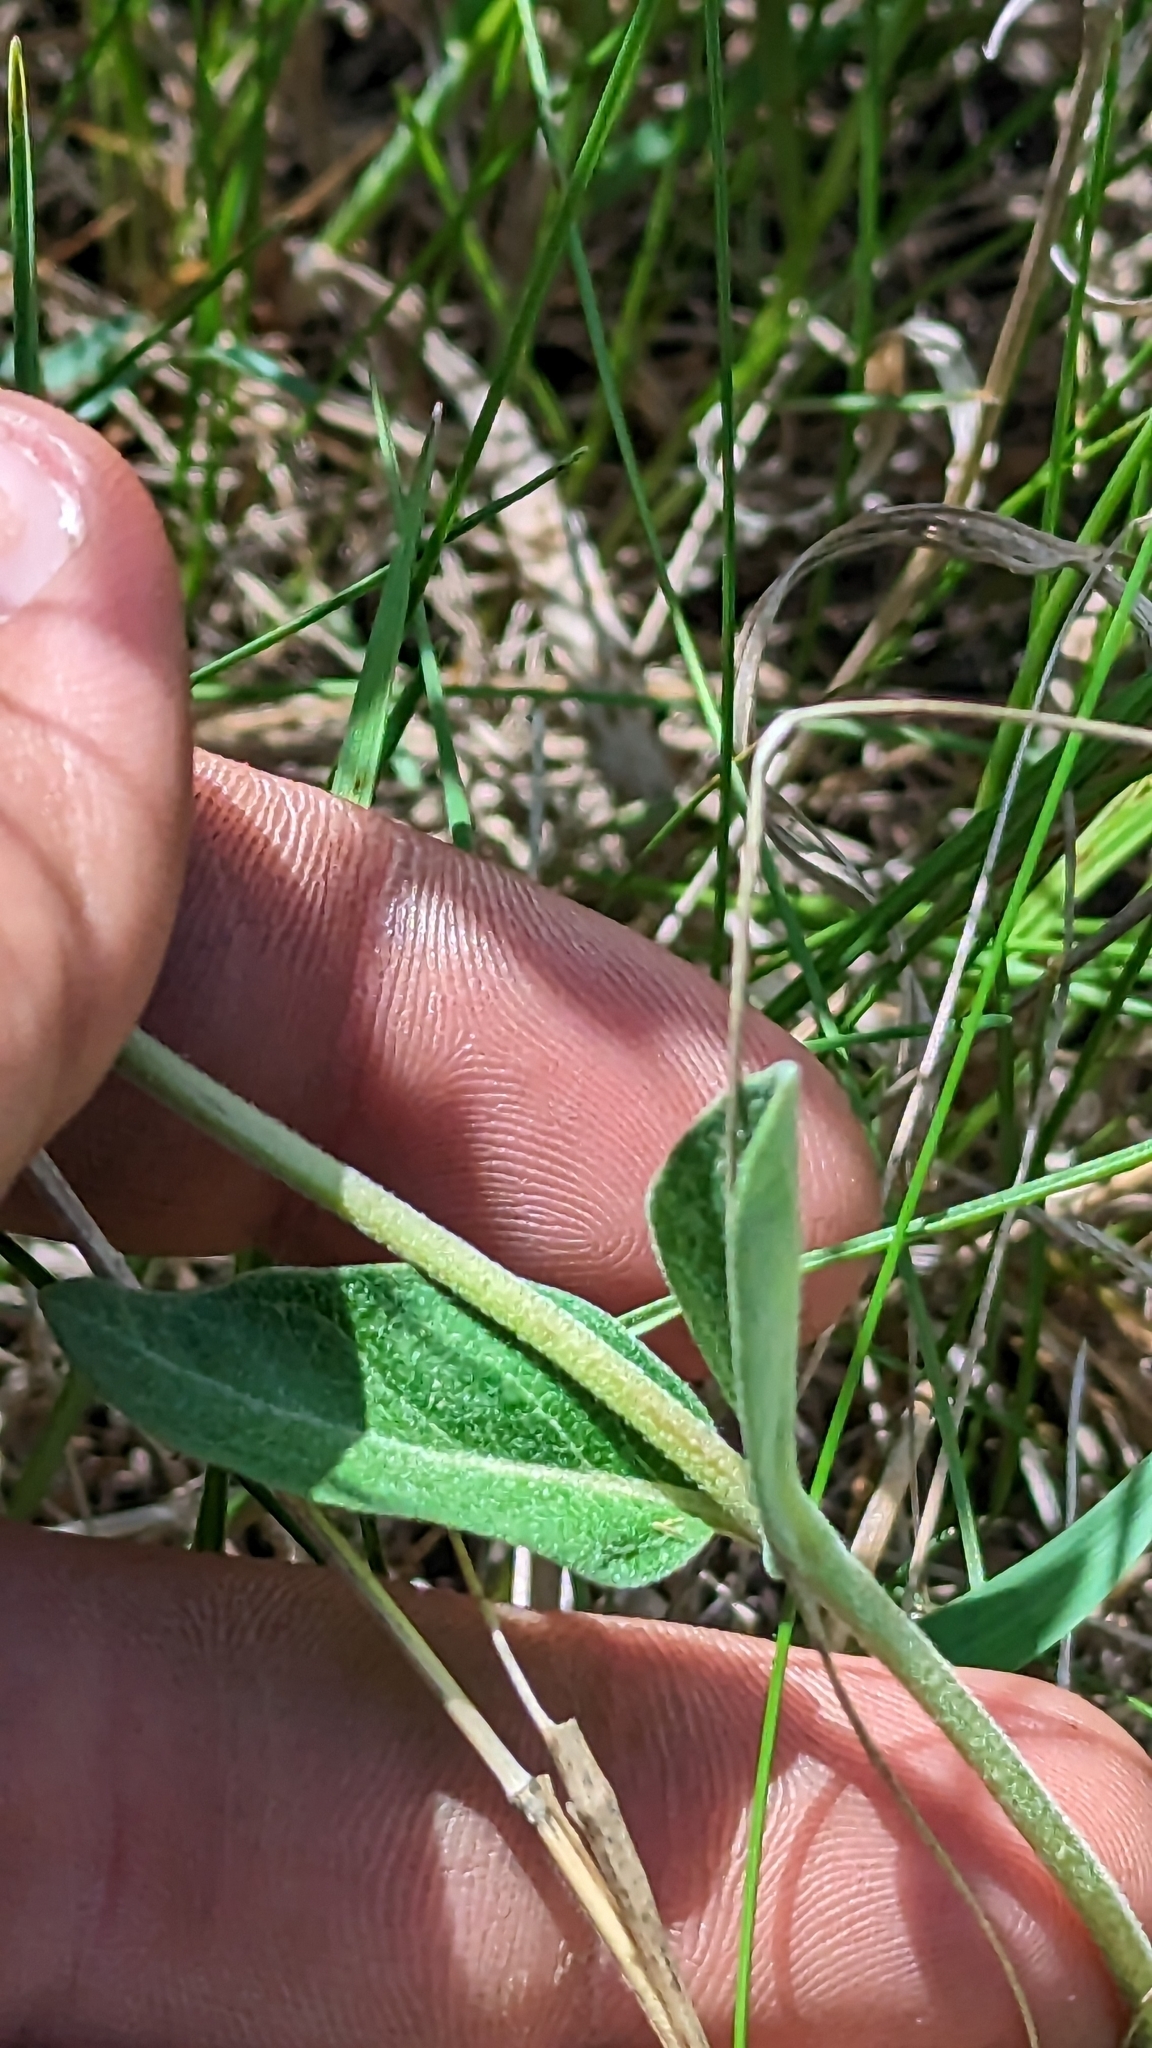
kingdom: Plantae
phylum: Tracheophyta
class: Magnoliopsida
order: Gentianales
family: Apocynaceae
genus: Asclepias
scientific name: Asclepias ovalifolia
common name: Dwarf milkweed
